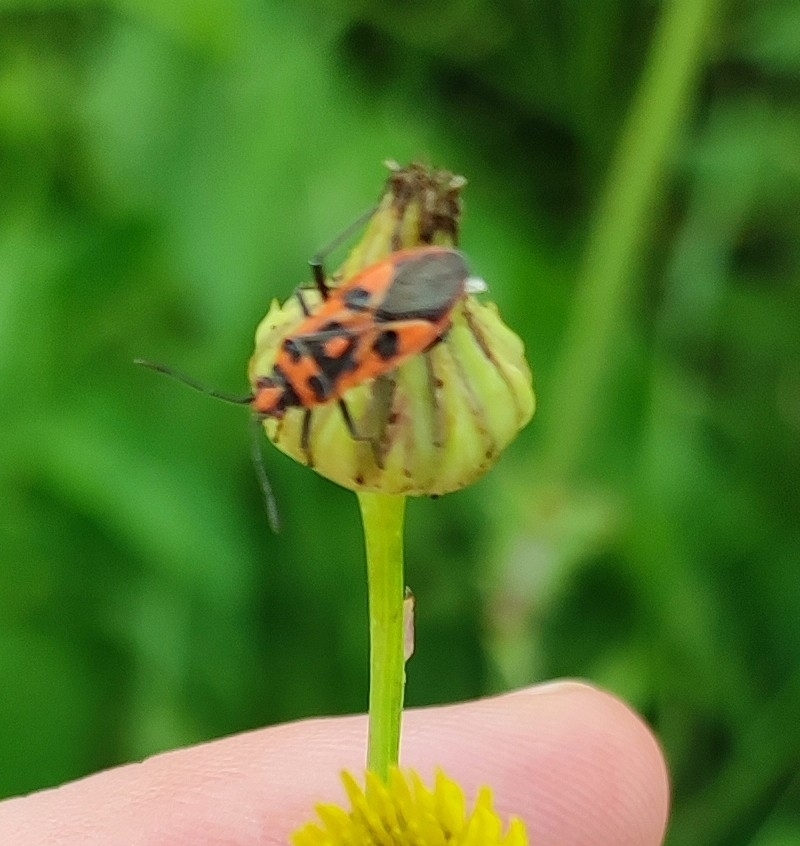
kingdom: Animalia
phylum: Arthropoda
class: Insecta
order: Hemiptera
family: Rhopalidae
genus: Corizus
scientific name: Corizus hyoscyami
